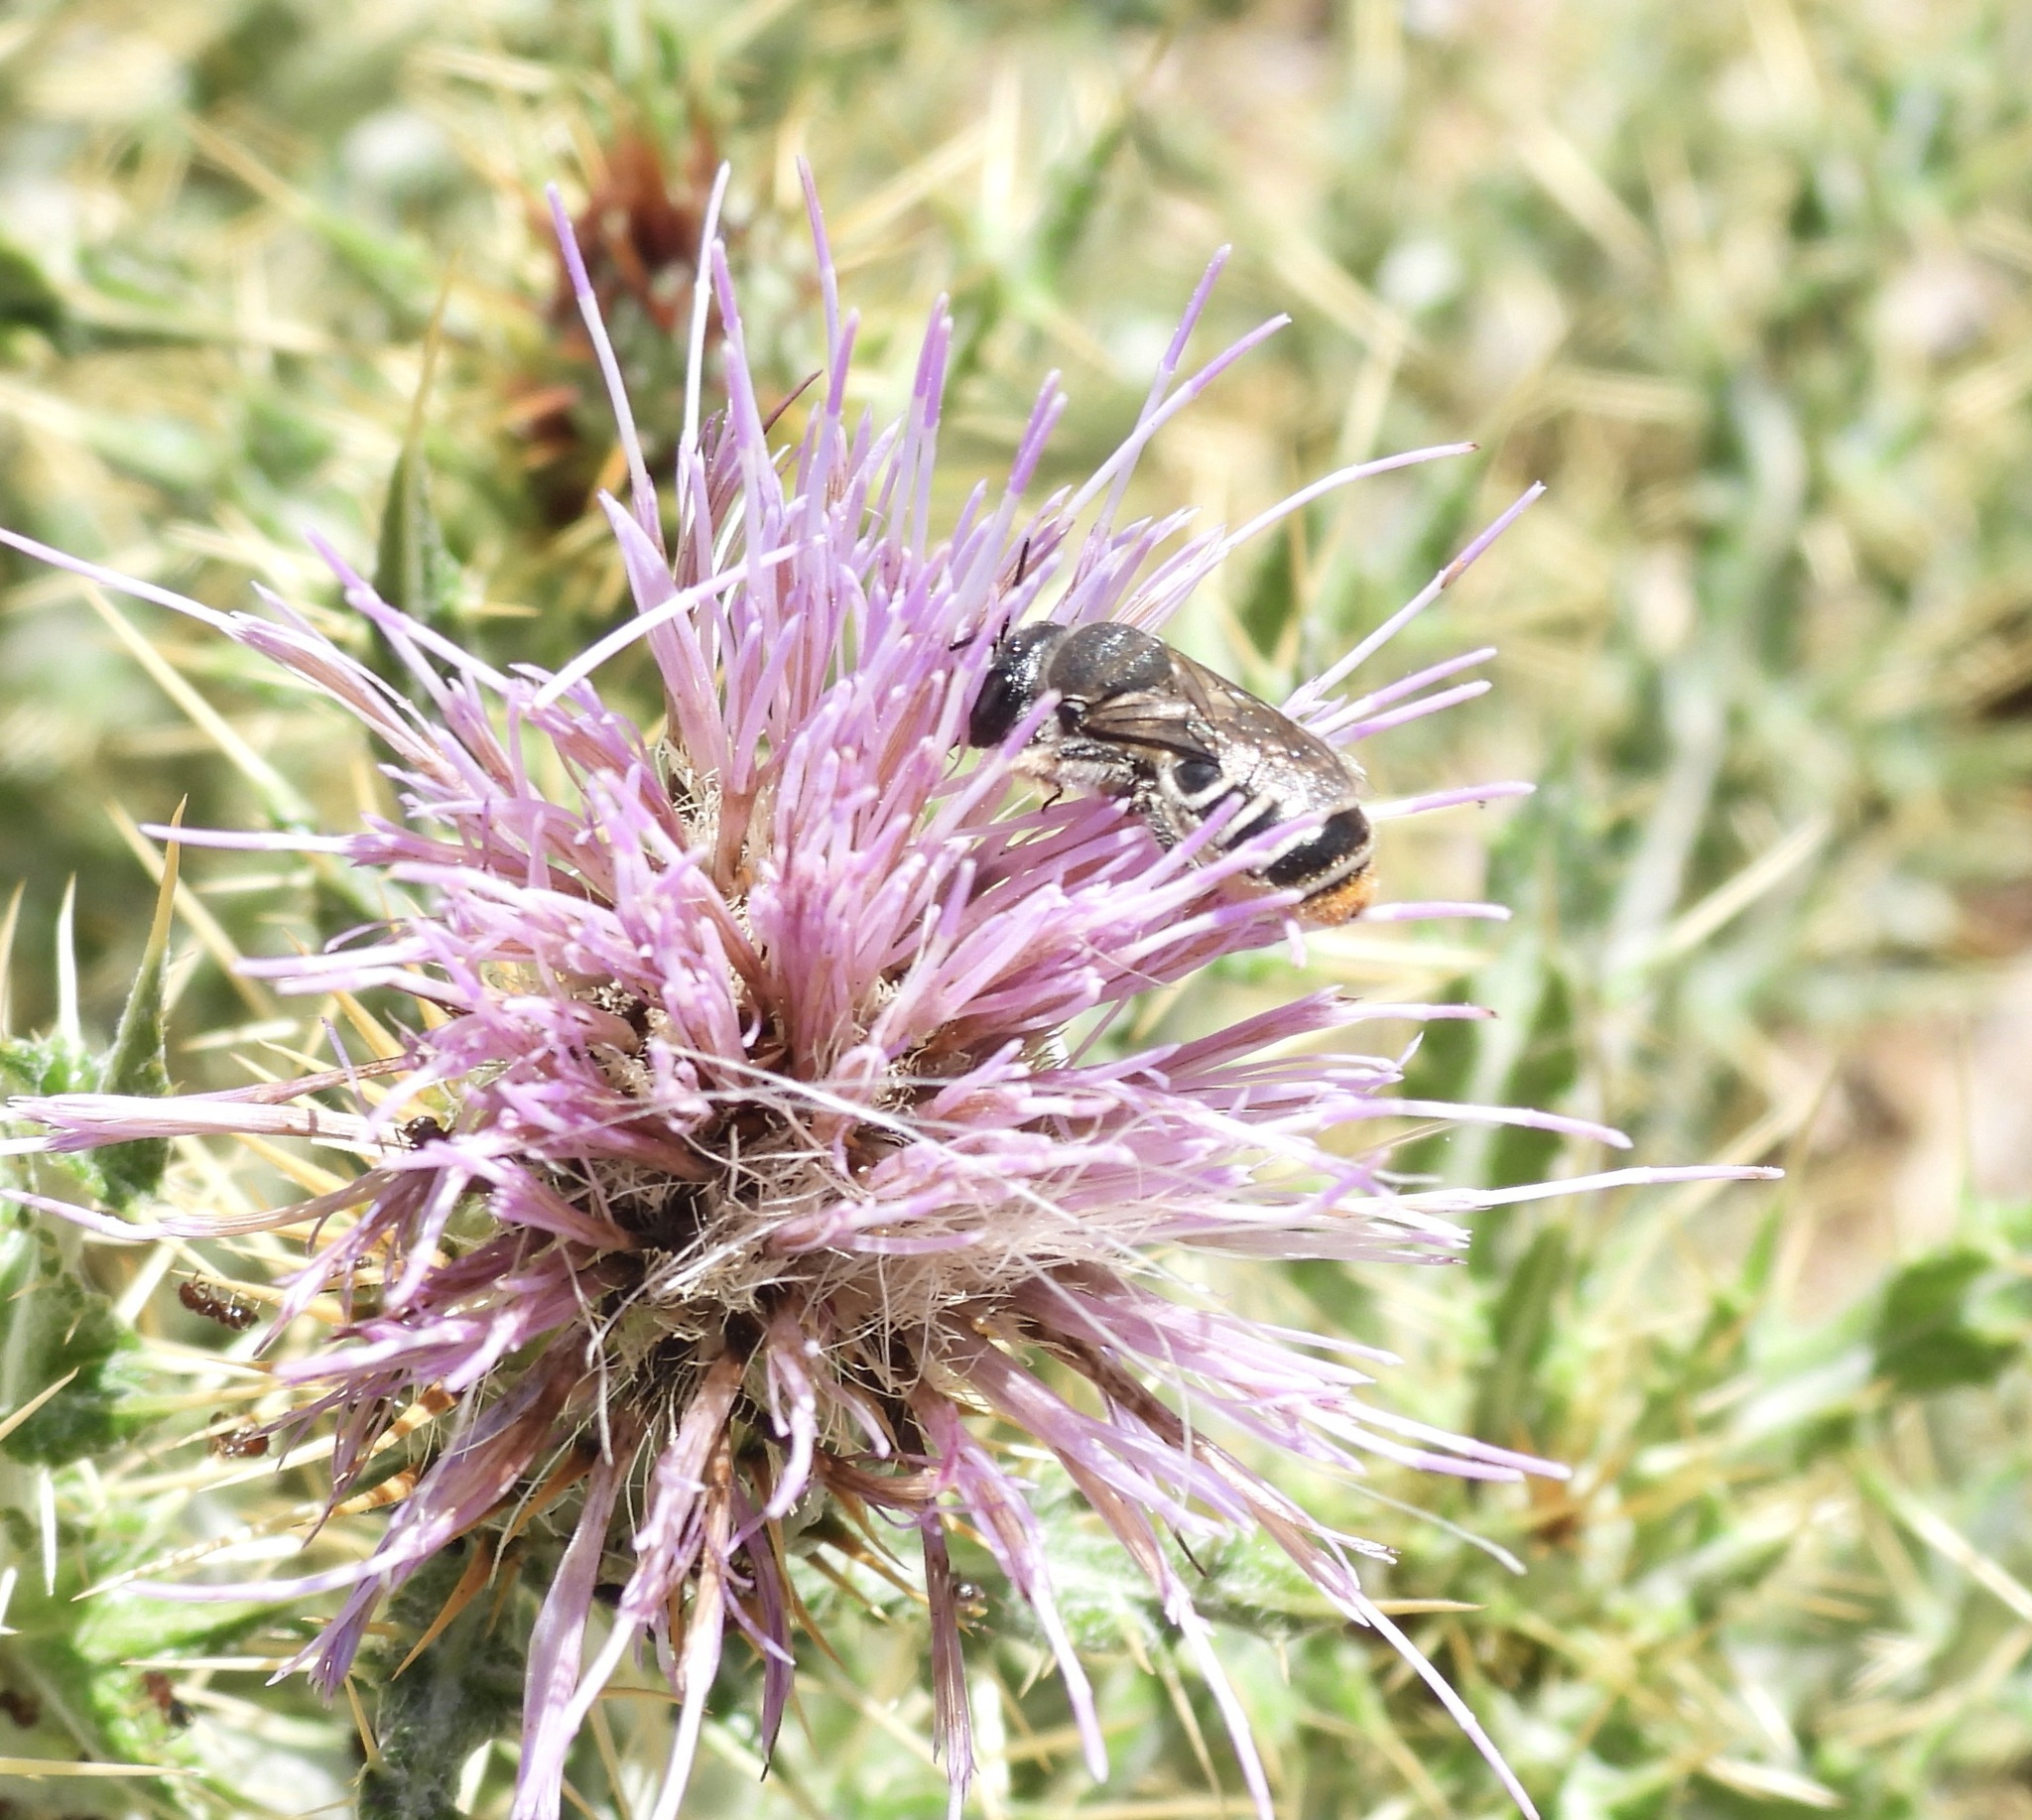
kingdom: Animalia
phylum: Arthropoda
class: Insecta
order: Hymenoptera
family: Megachilidae
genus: Lithurgopsis
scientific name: Lithurgopsis apicalis
